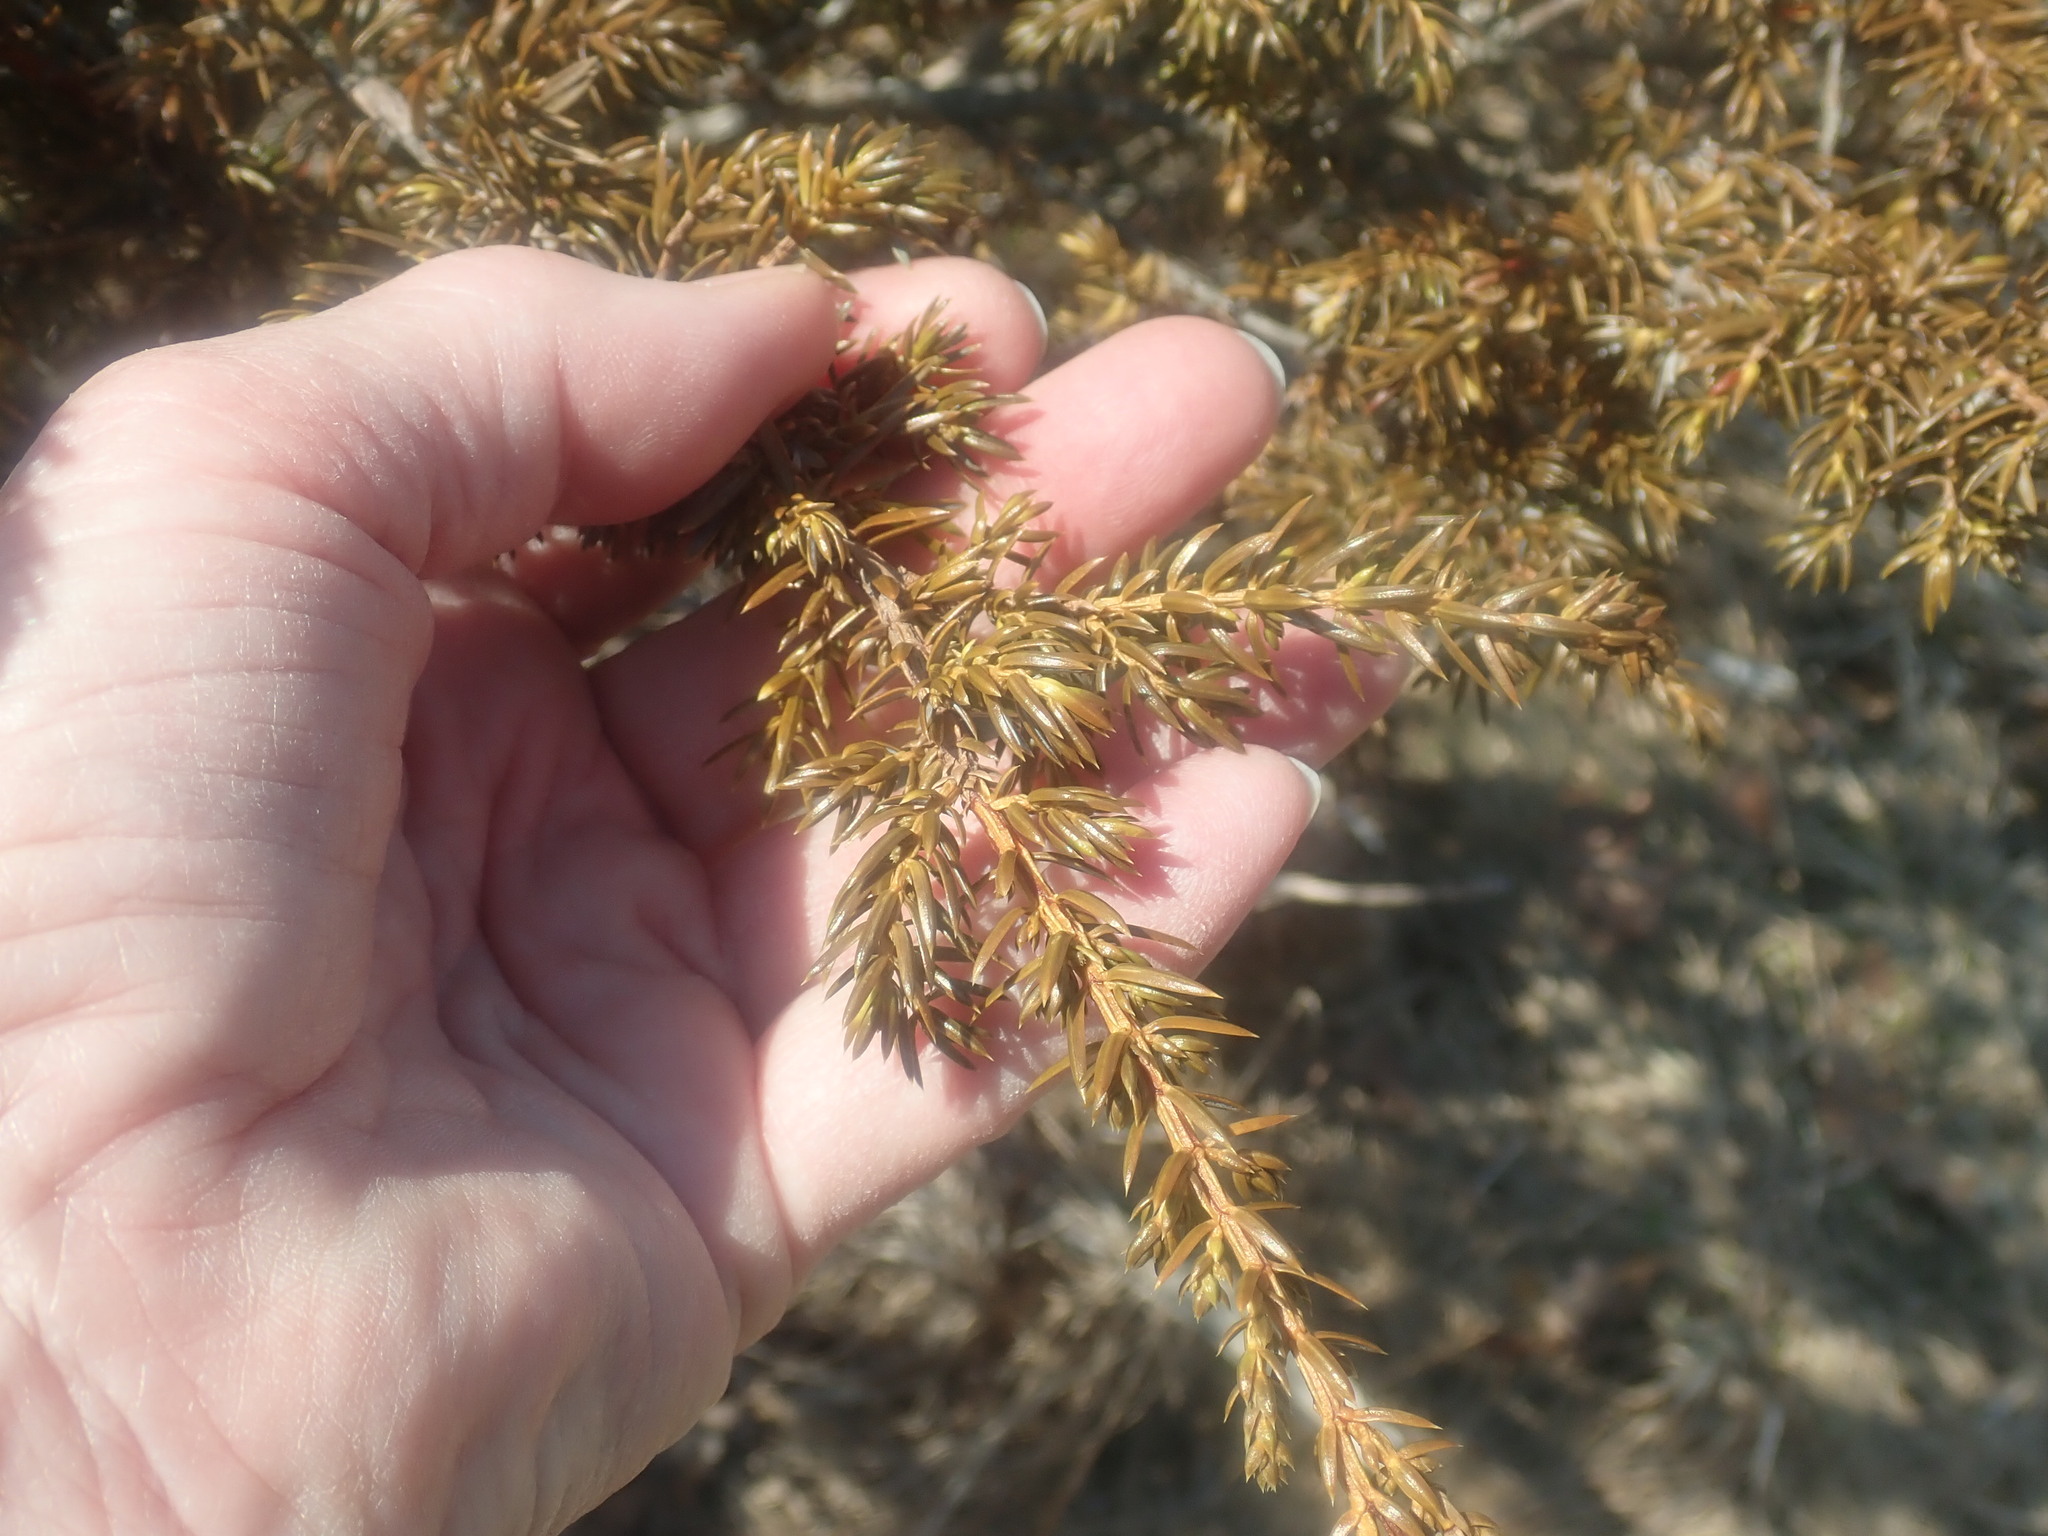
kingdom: Plantae
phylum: Tracheophyta
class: Pinopsida
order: Pinales
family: Cupressaceae
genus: Juniperus
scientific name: Juniperus communis
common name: Common juniper
